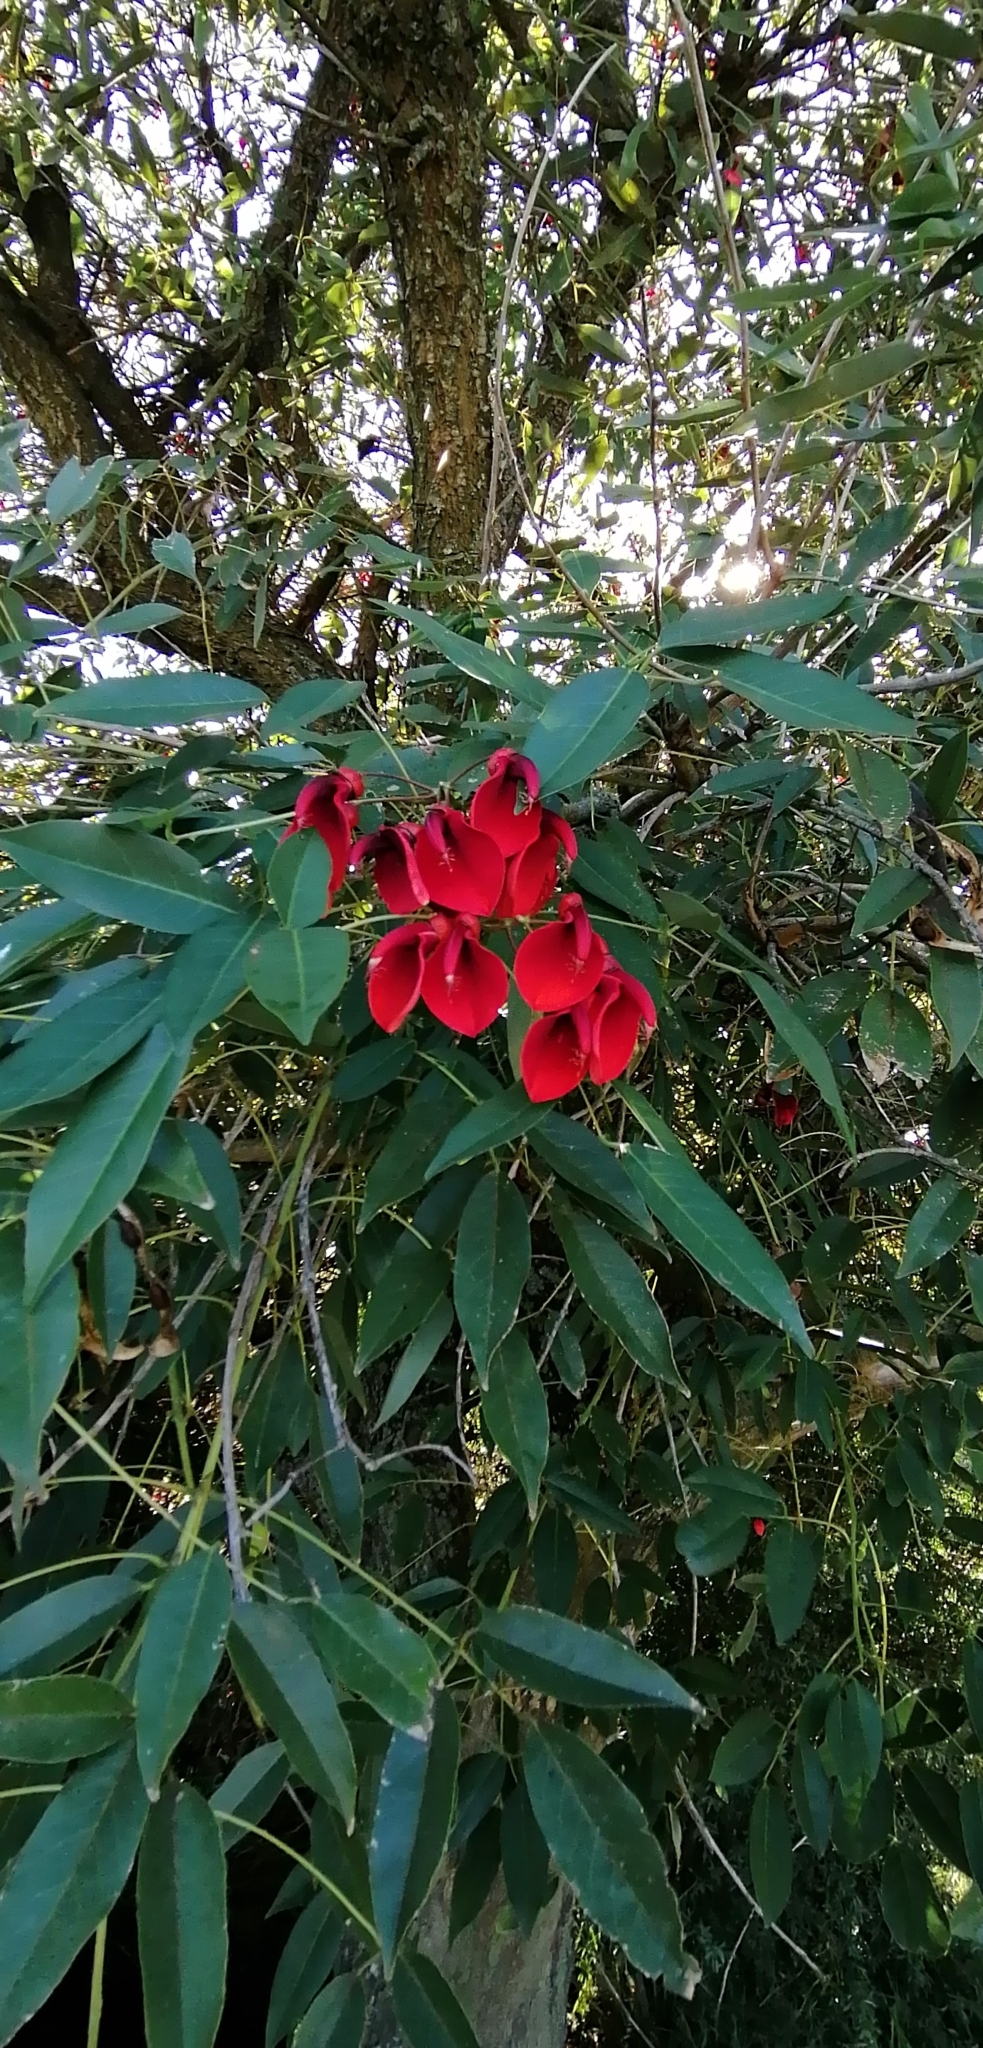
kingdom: Plantae
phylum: Tracheophyta
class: Magnoliopsida
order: Fabales
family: Fabaceae
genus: Erythrina
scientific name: Erythrina crista-galli
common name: Cockspur coral tree
